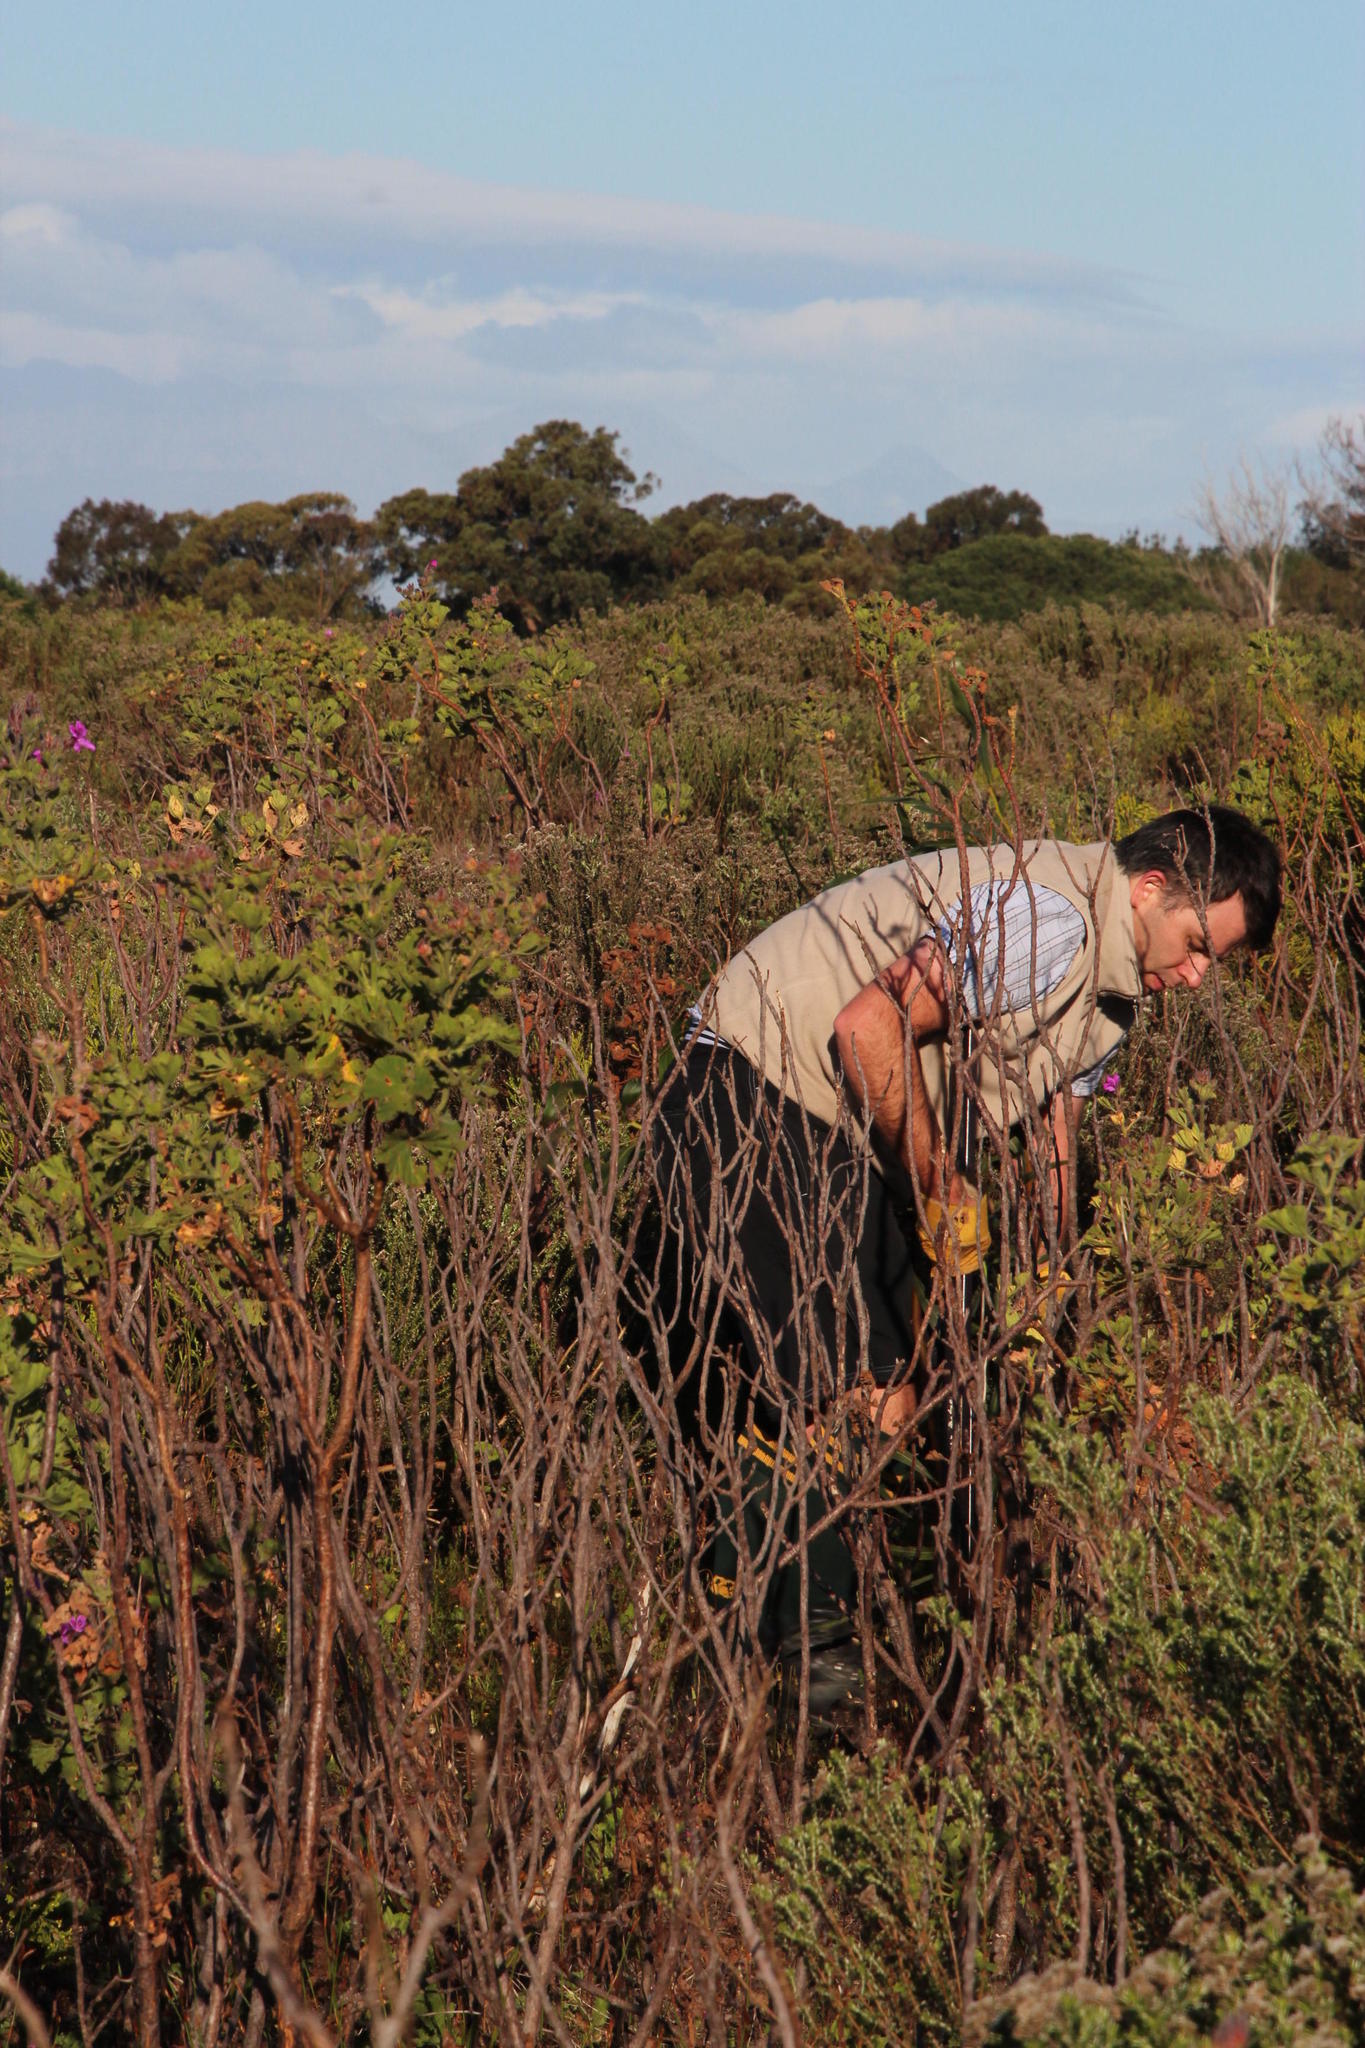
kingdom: Plantae
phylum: Tracheophyta
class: Magnoliopsida
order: Geraniales
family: Geraniaceae
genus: Pelargonium
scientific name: Pelargonium cucullatum
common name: Tree pelargonium
